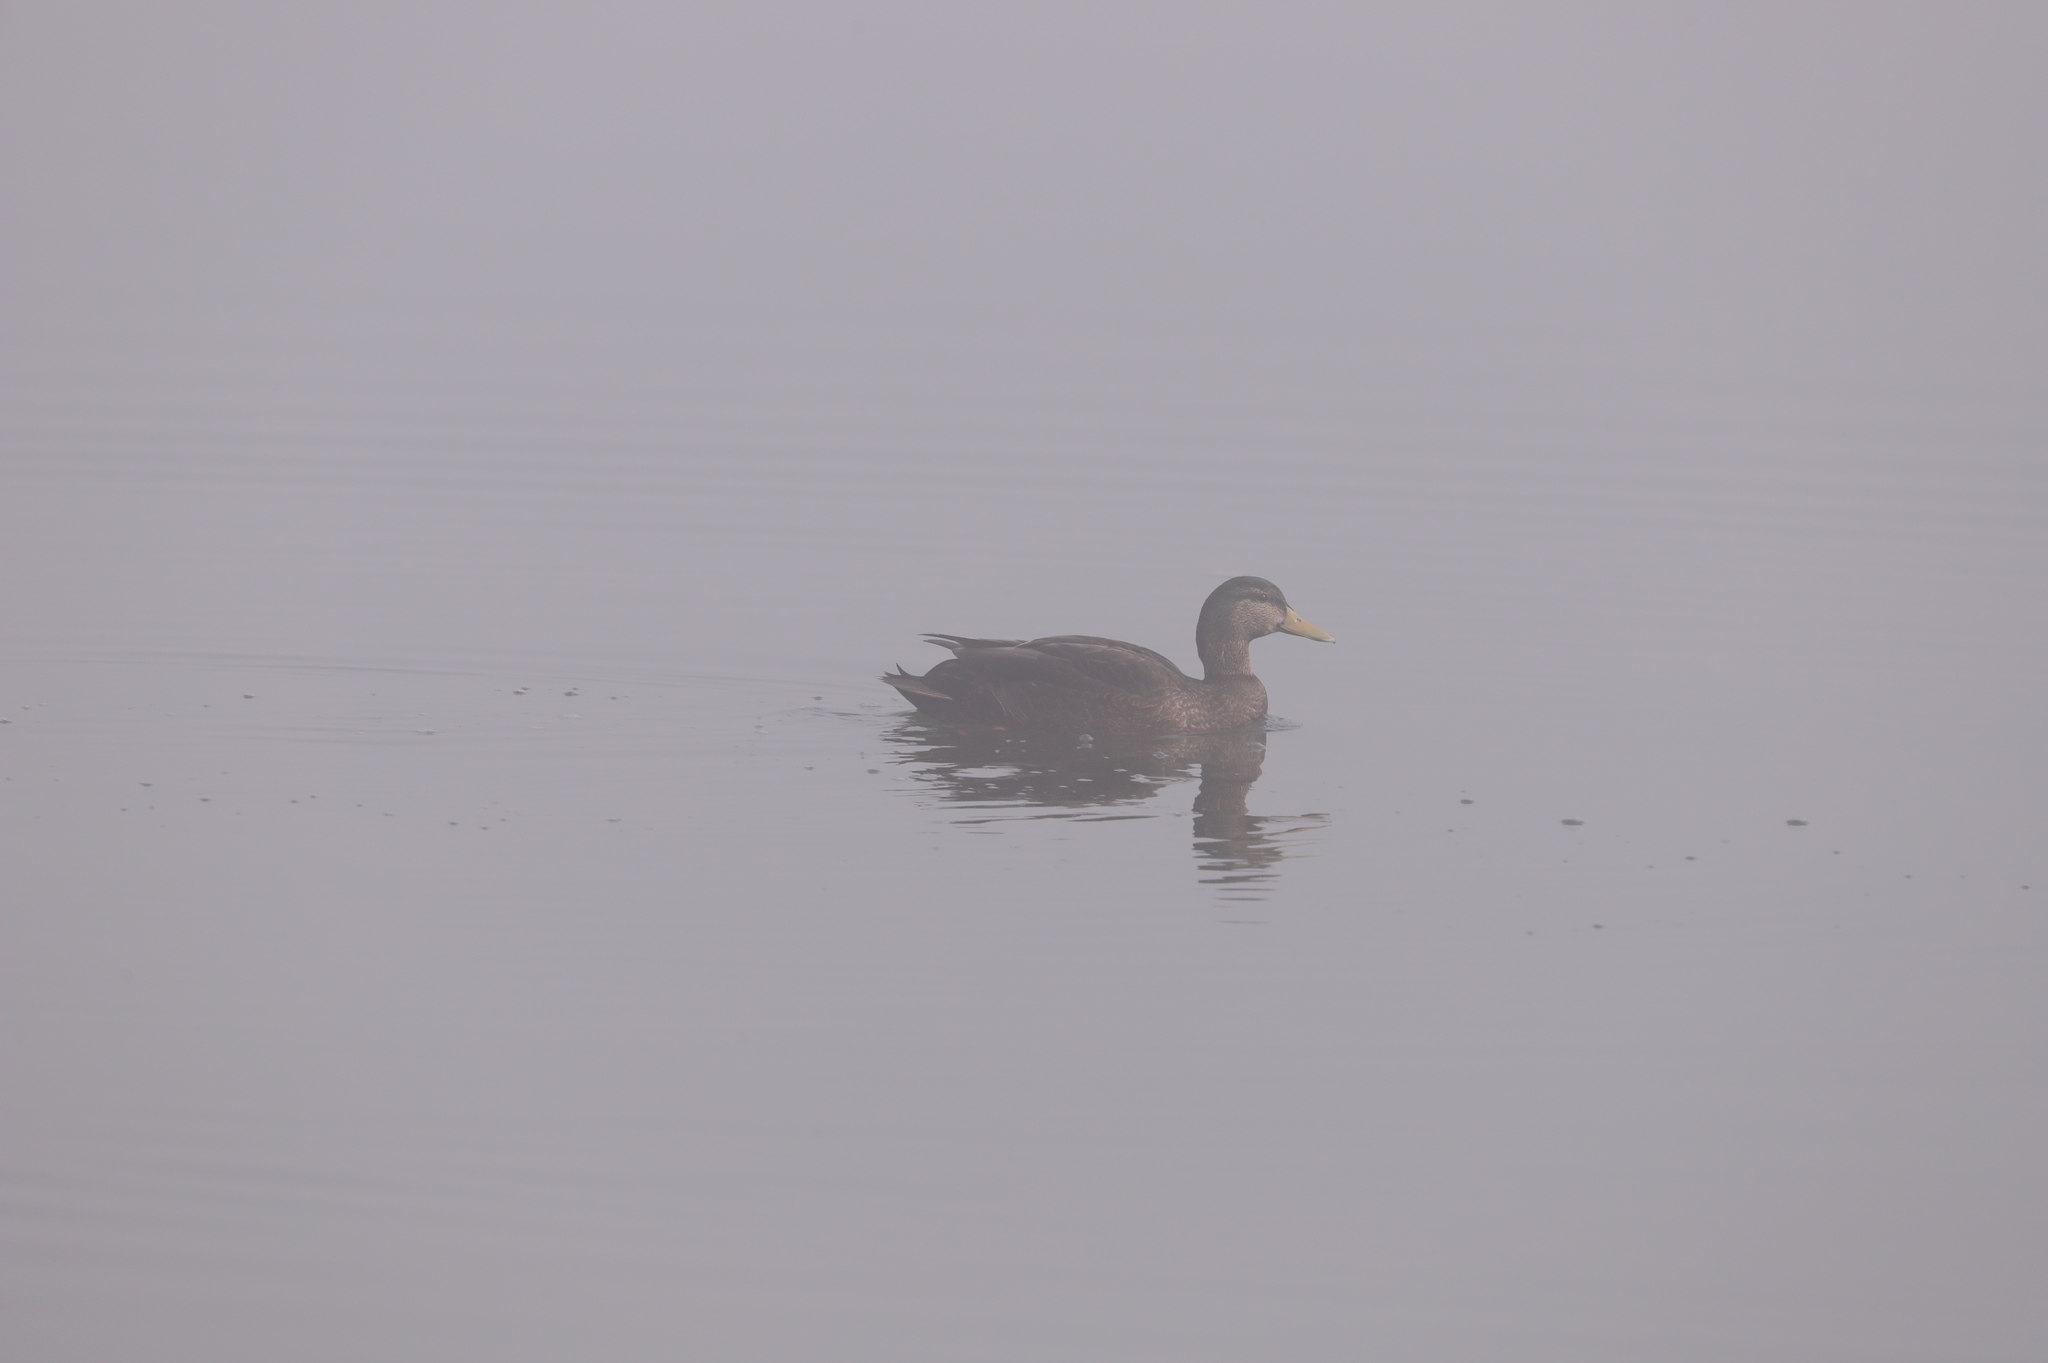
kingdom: Animalia
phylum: Chordata
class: Aves
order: Anseriformes
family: Anatidae
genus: Anas
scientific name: Anas
